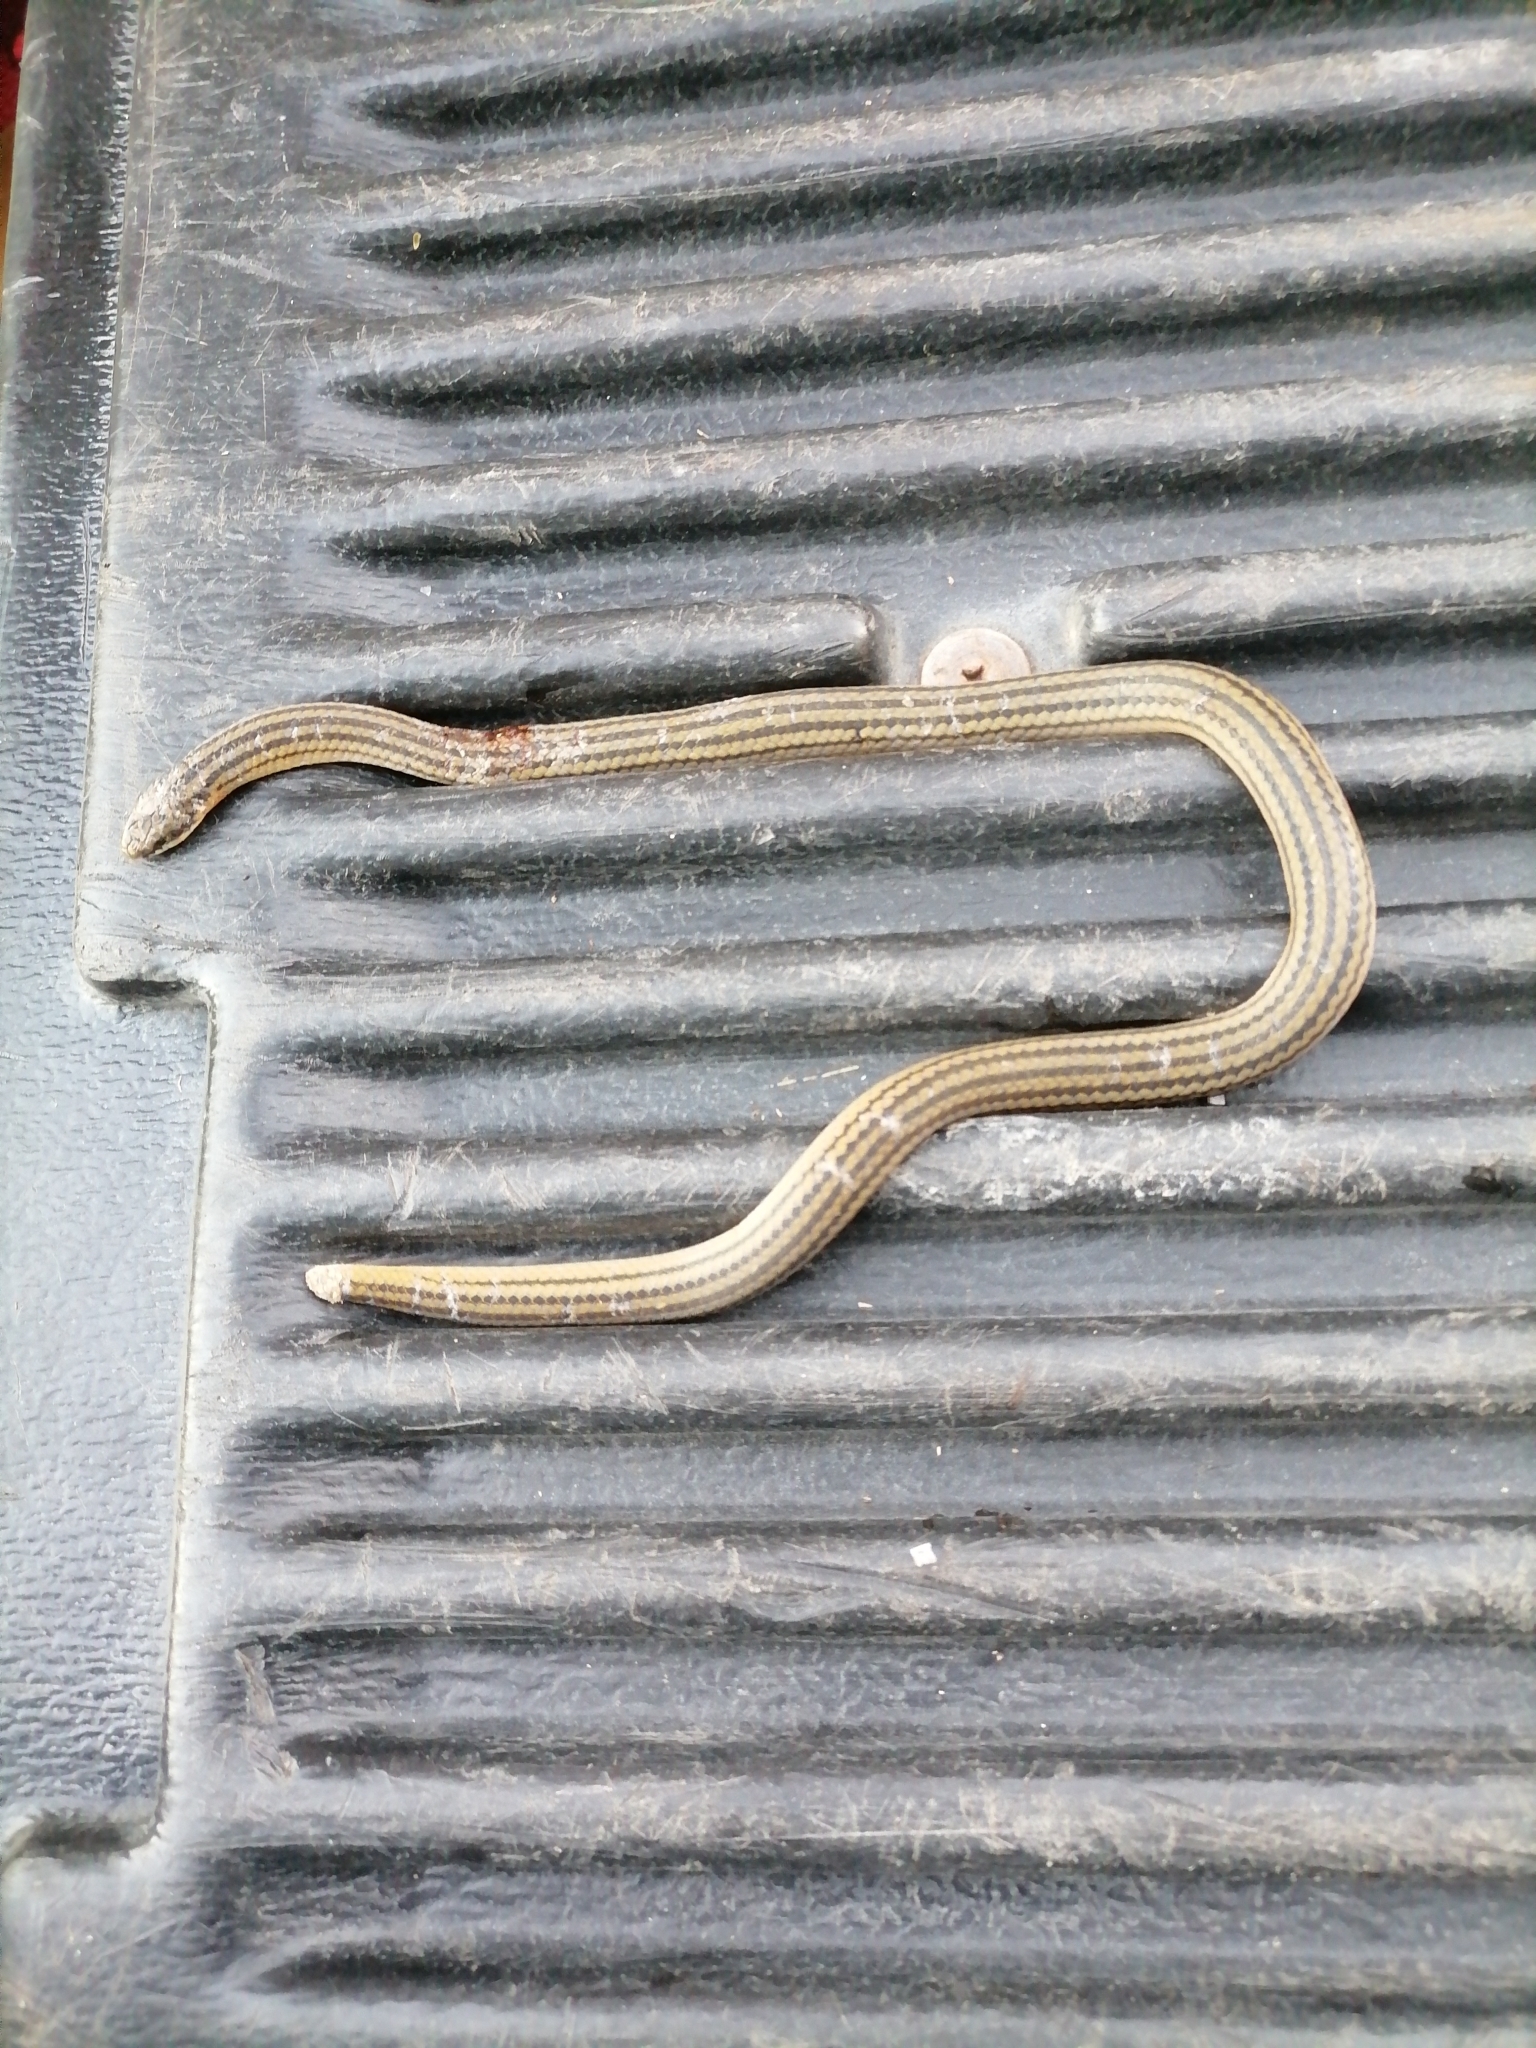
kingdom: Animalia
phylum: Chordata
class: Squamata
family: Colubridae
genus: Stenorrhina
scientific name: Stenorrhina freminvillei
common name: Blood snake
